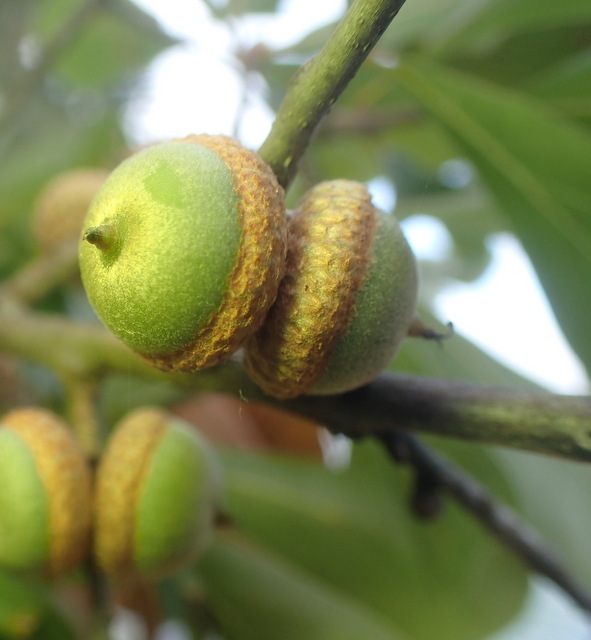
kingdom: Plantae
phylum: Tracheophyta
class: Magnoliopsida
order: Fagales
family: Fagaceae
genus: Quercus
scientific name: Quercus nigra
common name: Water oak
